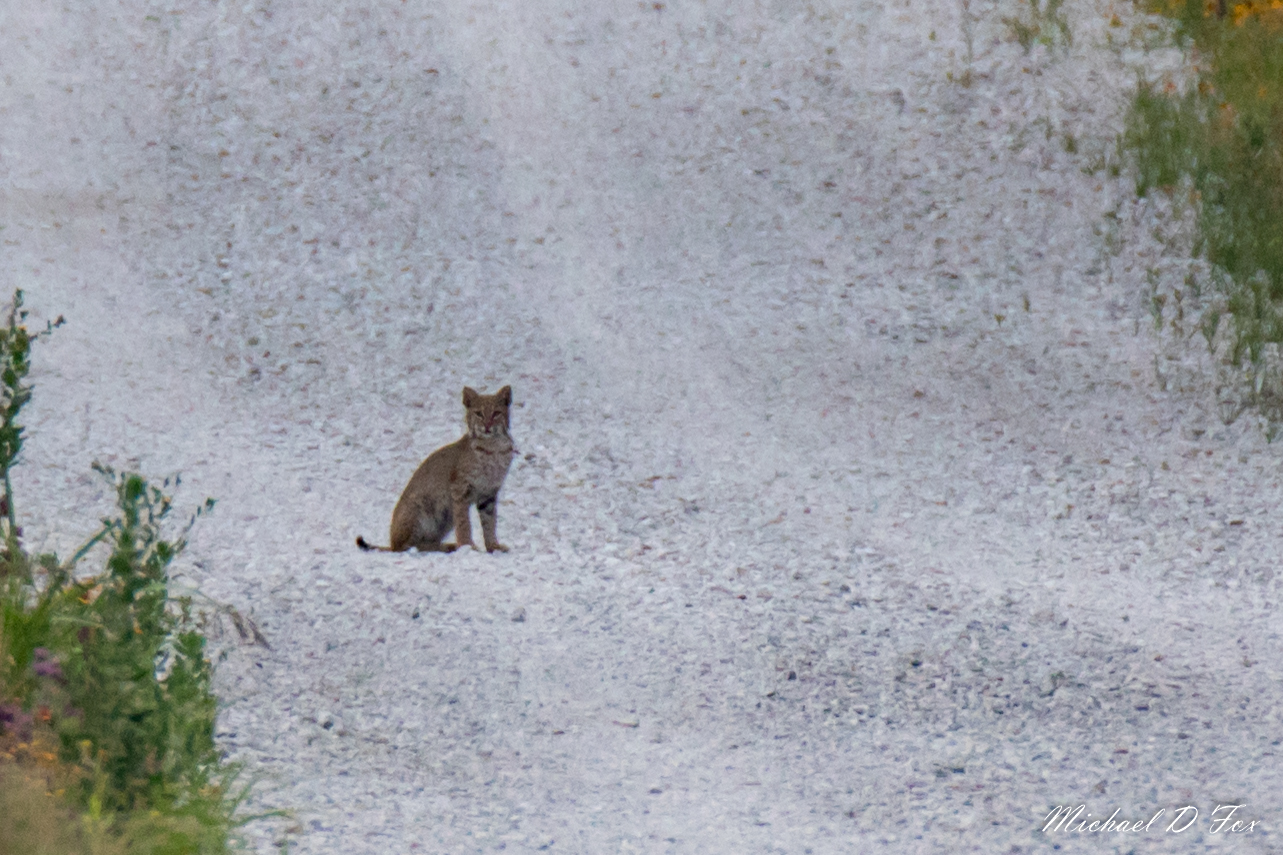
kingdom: Animalia
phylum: Chordata
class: Mammalia
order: Carnivora
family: Felidae
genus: Lynx
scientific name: Lynx rufus
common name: Bobcat
